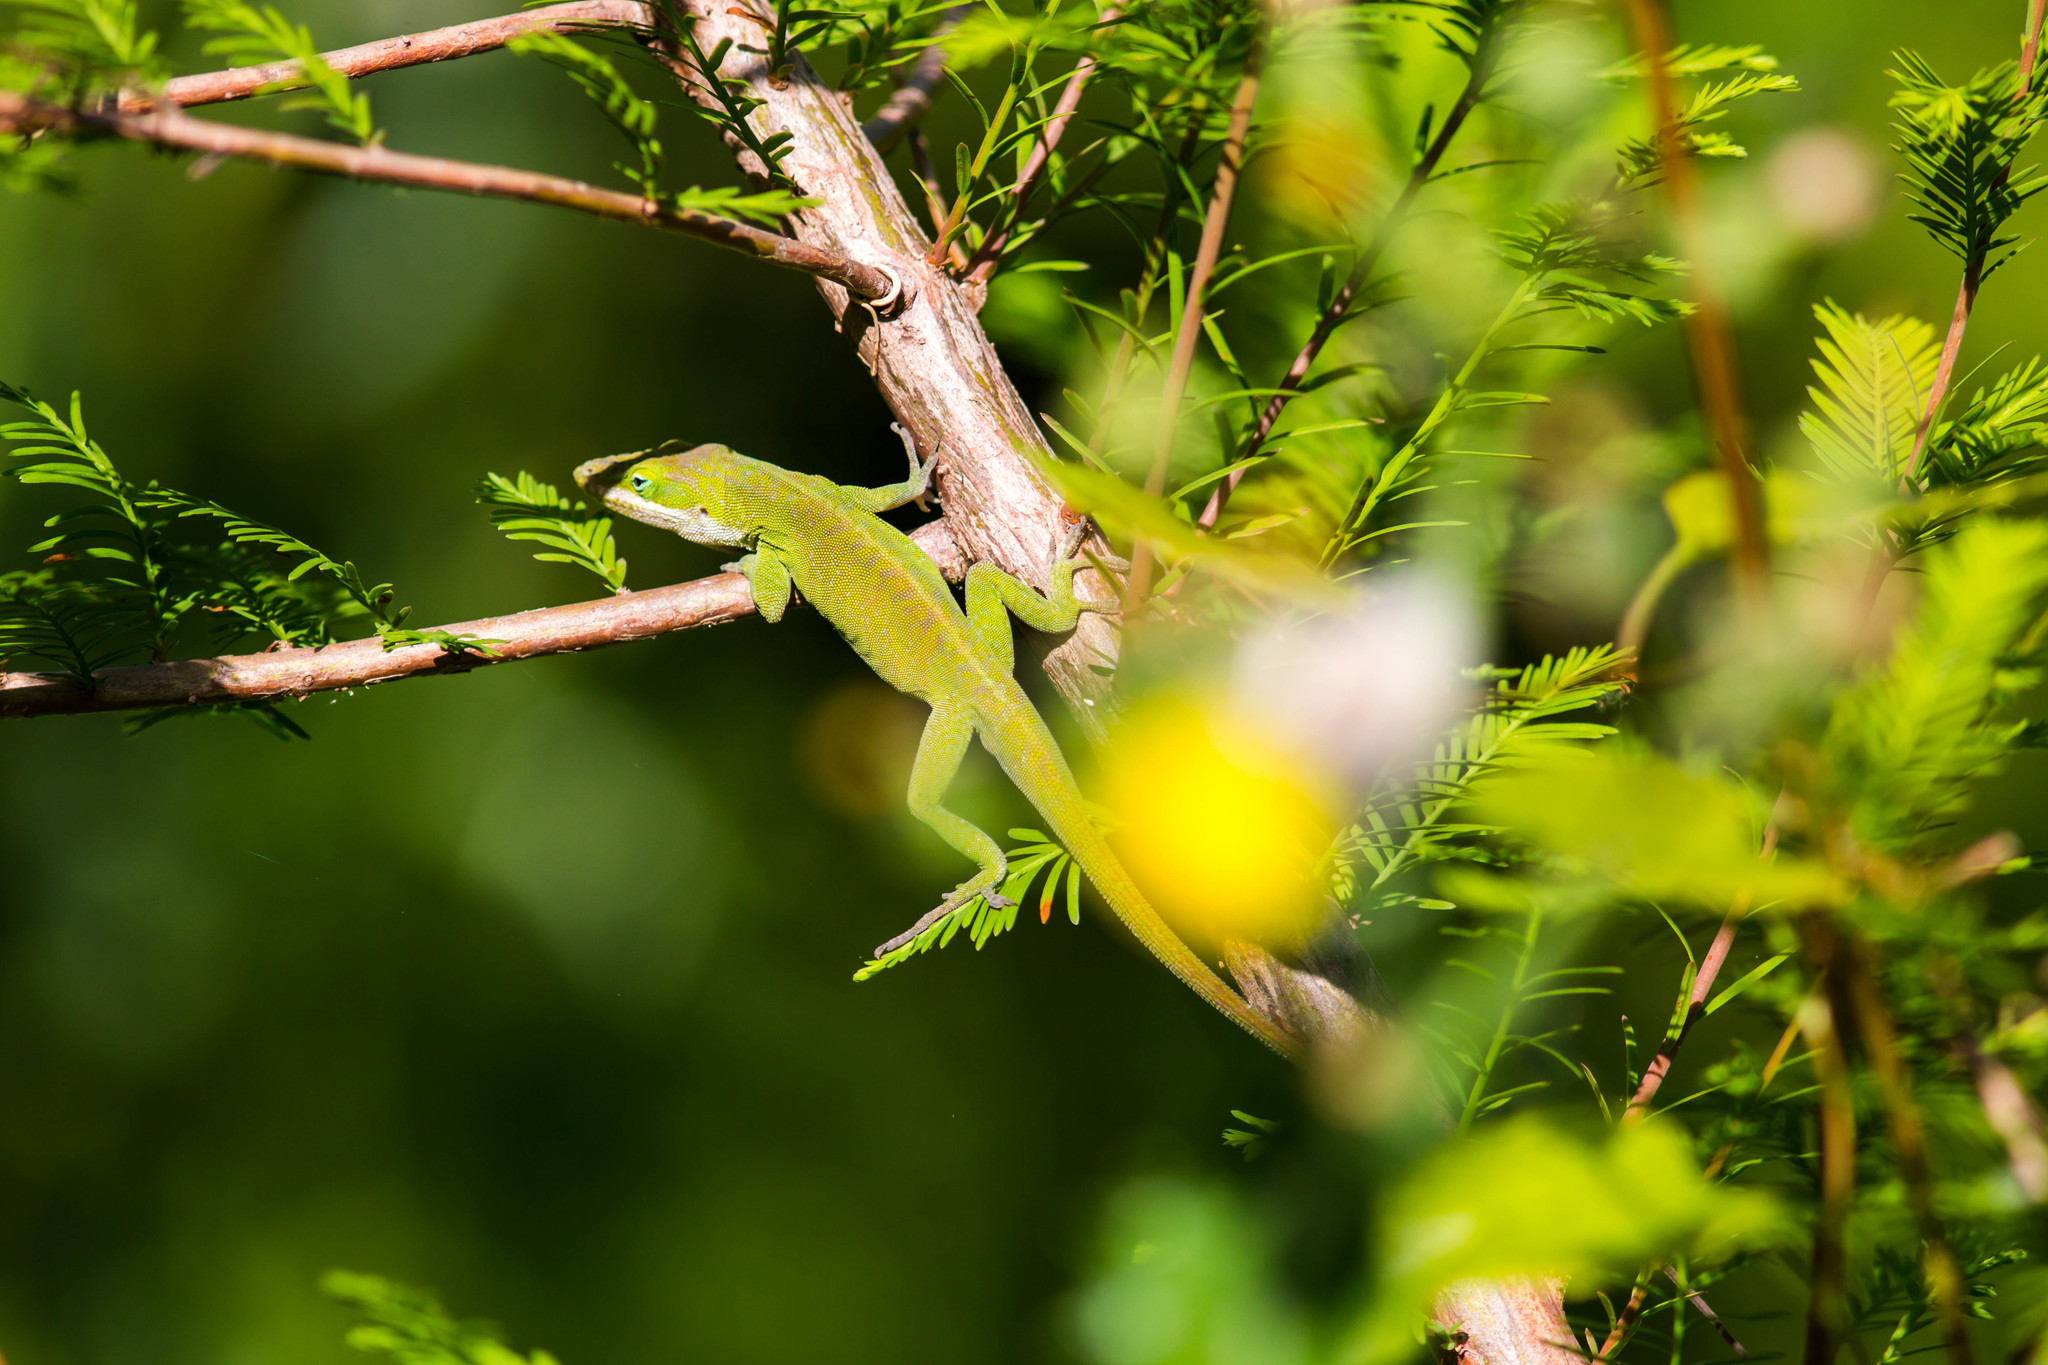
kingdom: Animalia
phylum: Chordata
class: Squamata
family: Dactyloidae
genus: Anolis
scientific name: Anolis carolinensis
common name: Green anole
